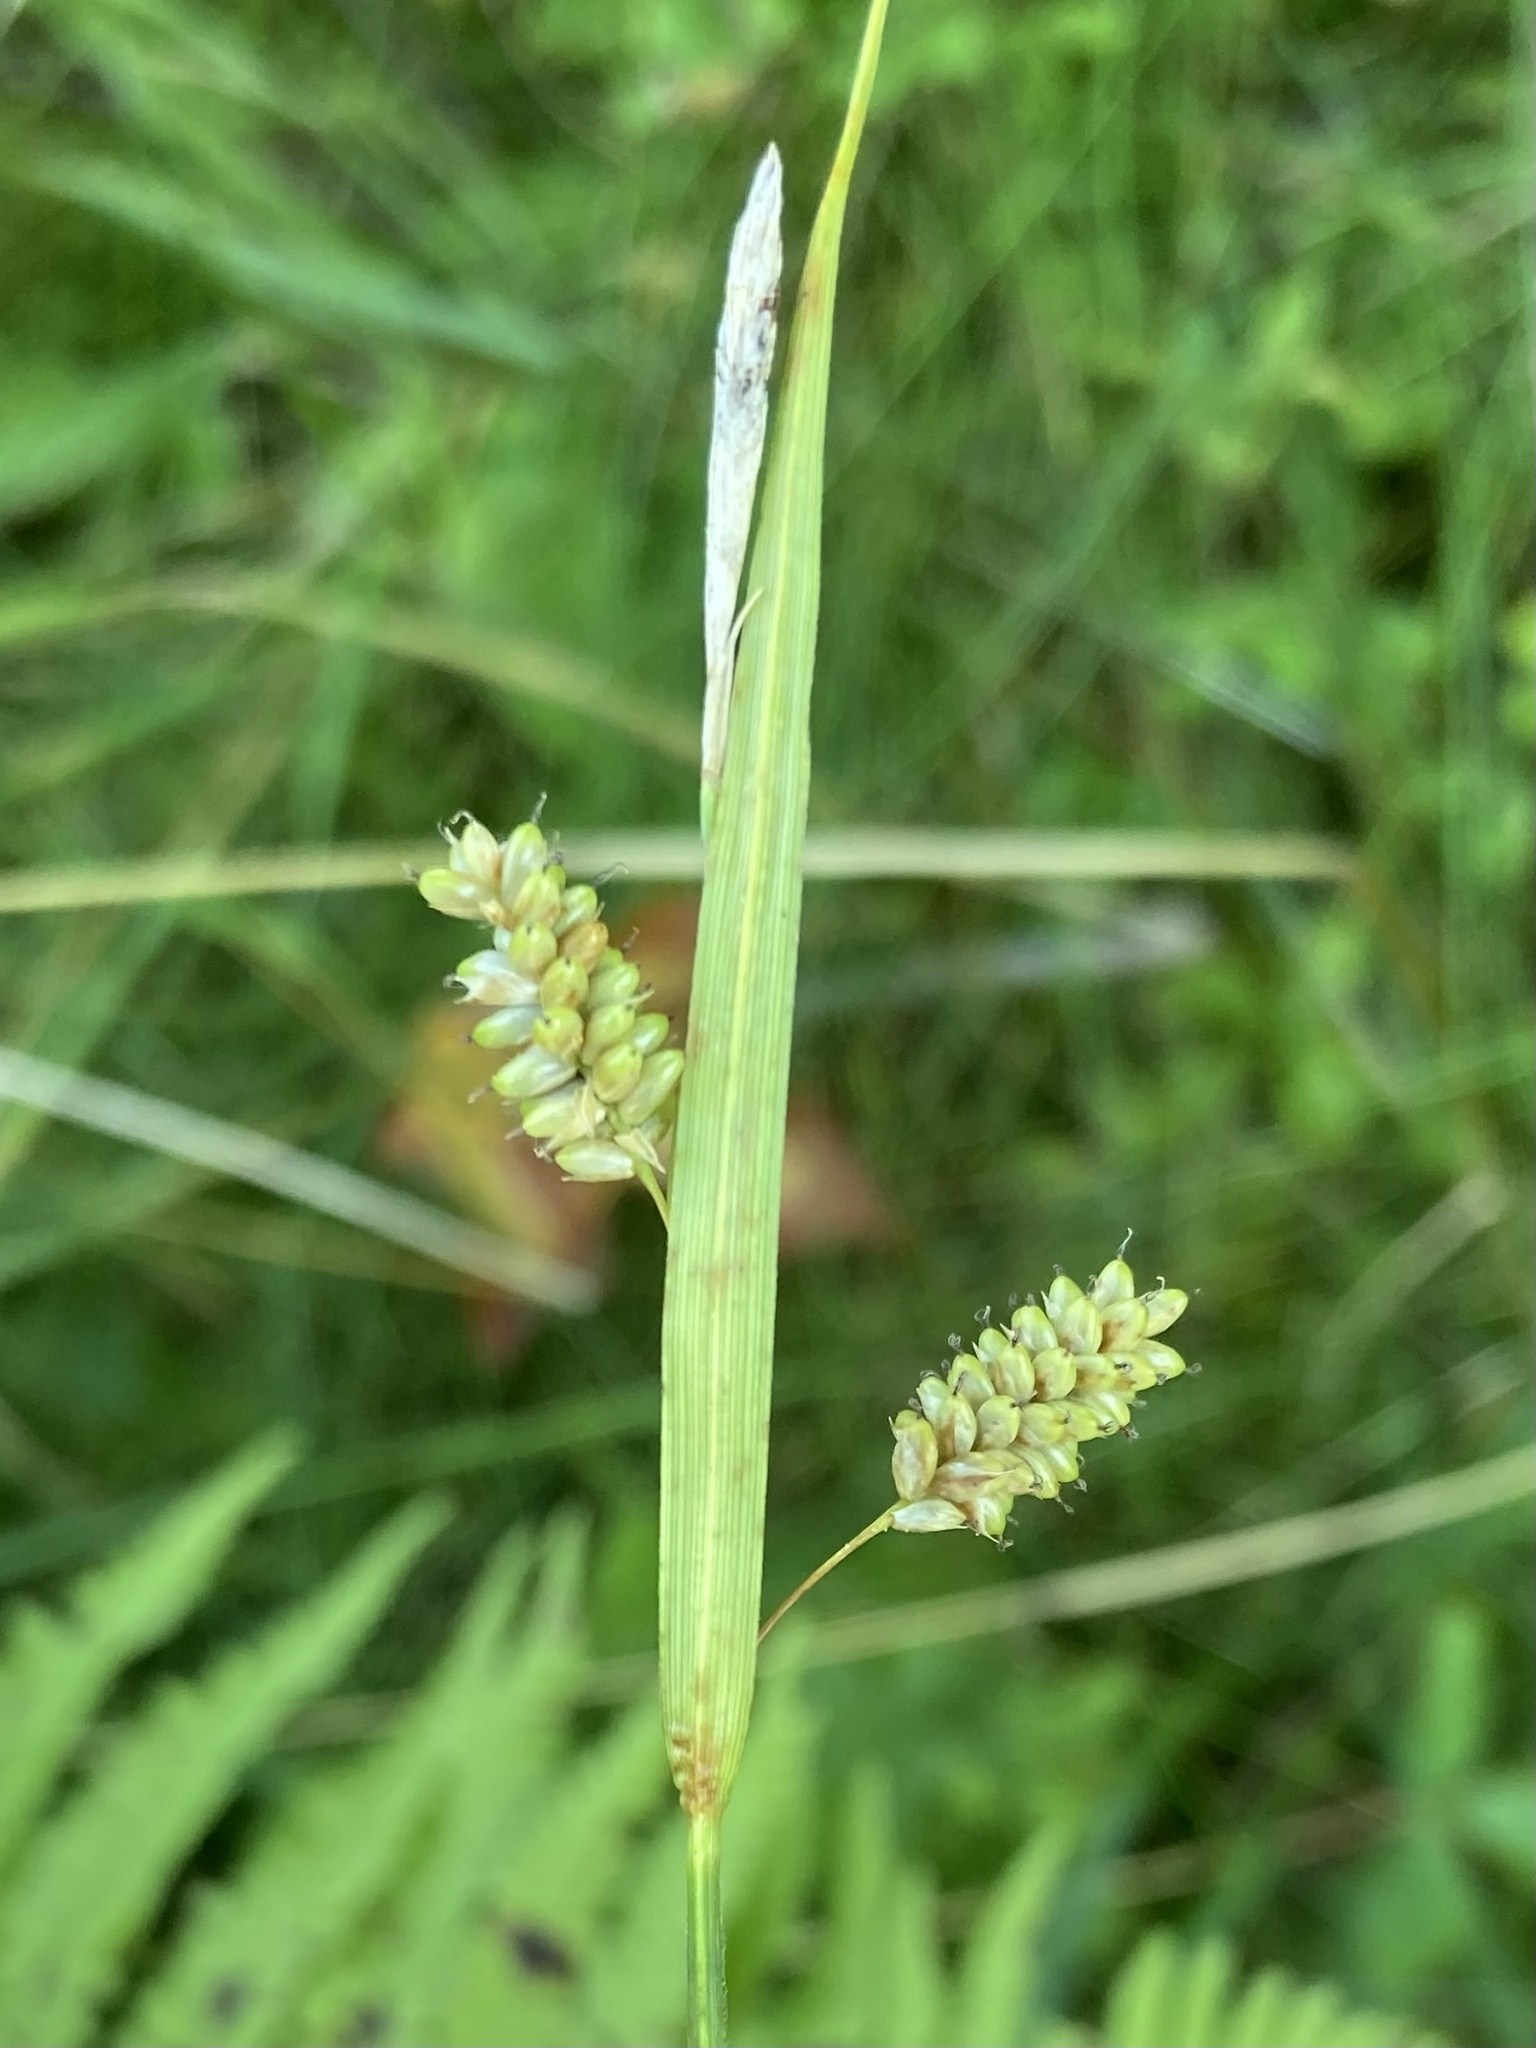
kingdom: Plantae
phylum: Tracheophyta
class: Liliopsida
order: Poales
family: Cyperaceae
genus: Carex
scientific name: Carex pallescens
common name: Pale sedge
